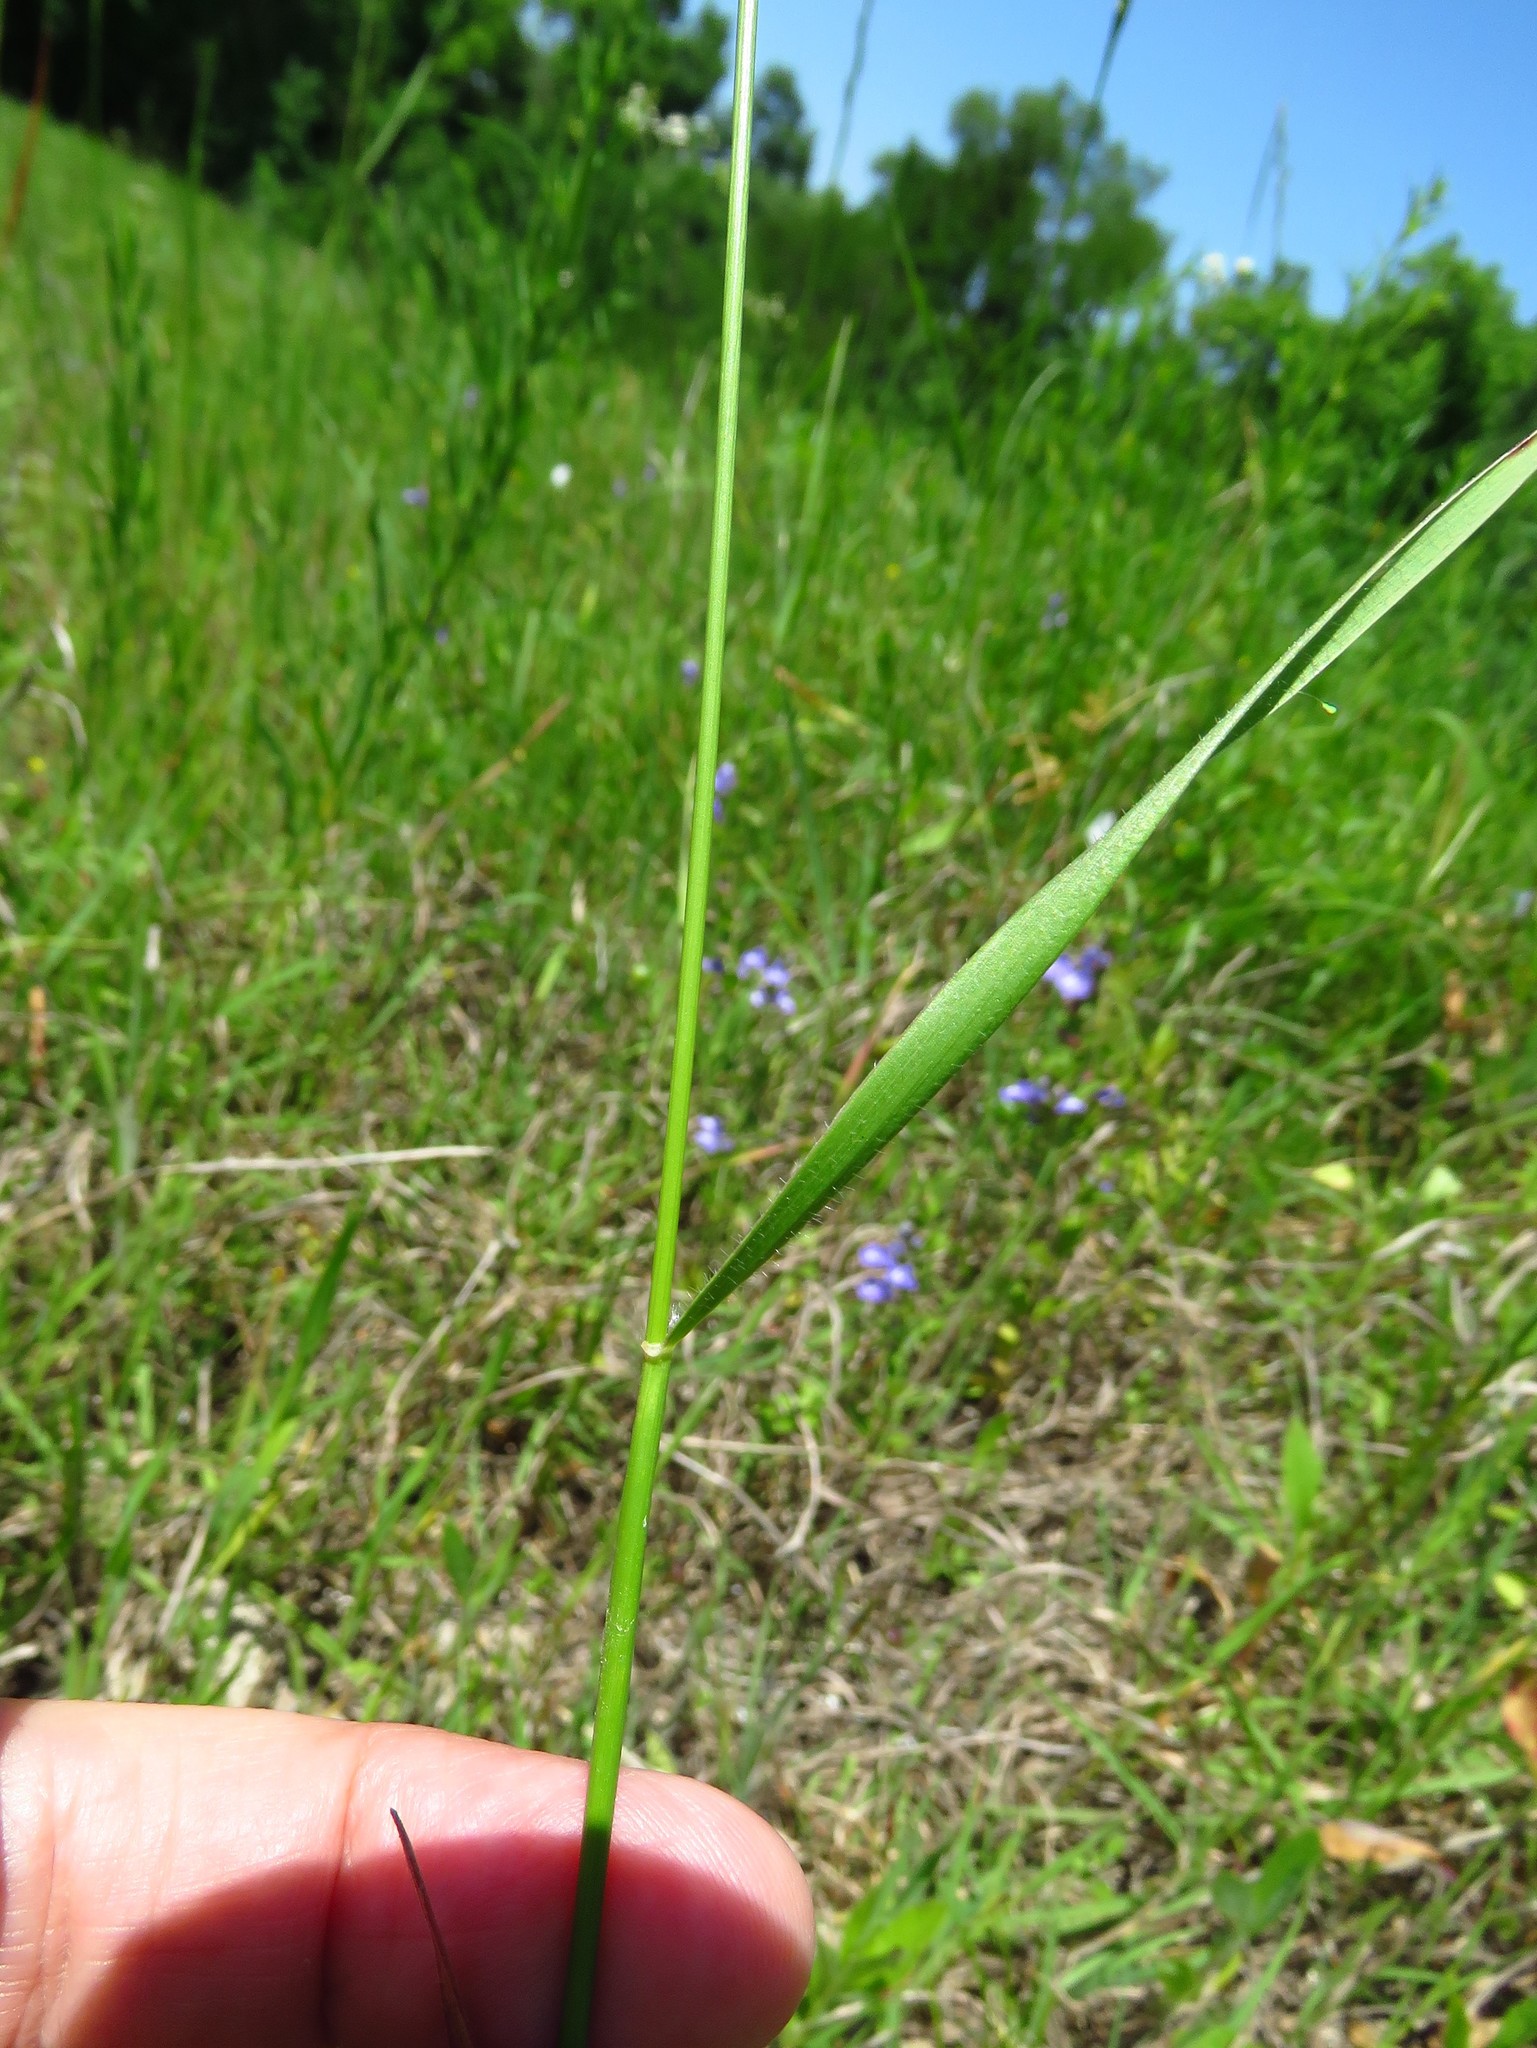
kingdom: Plantae
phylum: Tracheophyta
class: Liliopsida
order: Poales
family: Poaceae
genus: Aegilops
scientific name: Aegilops cylindrica
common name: Jointed goatgrass
